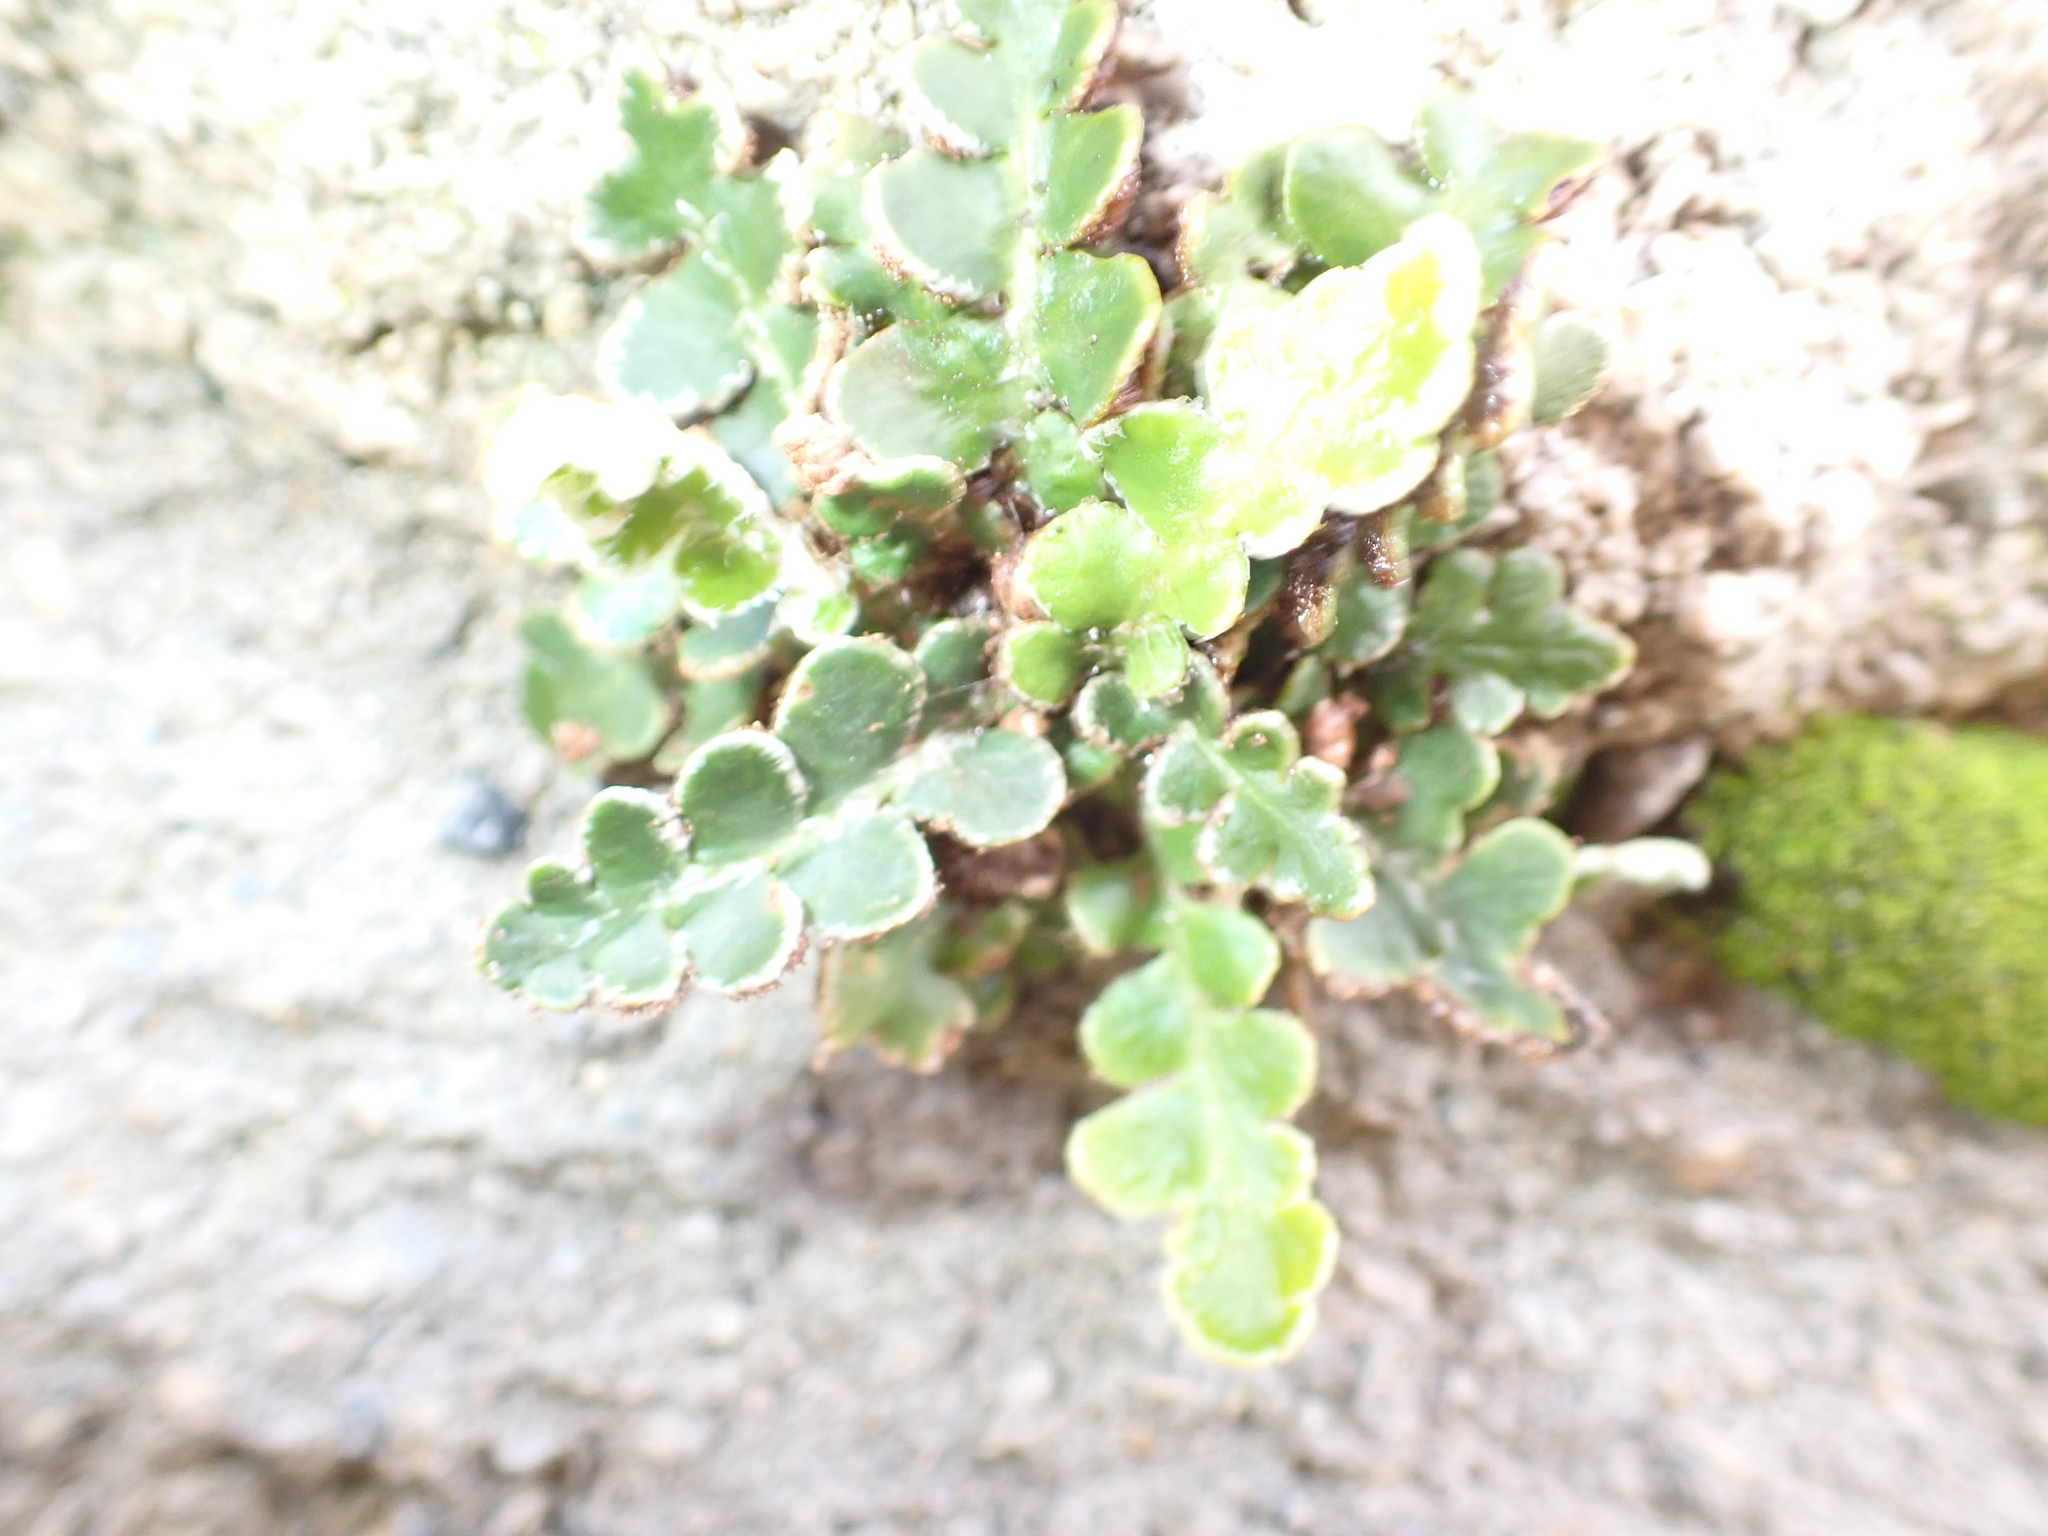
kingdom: Plantae
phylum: Tracheophyta
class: Polypodiopsida
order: Polypodiales
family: Aspleniaceae
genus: Asplenium
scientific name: Asplenium ceterach
